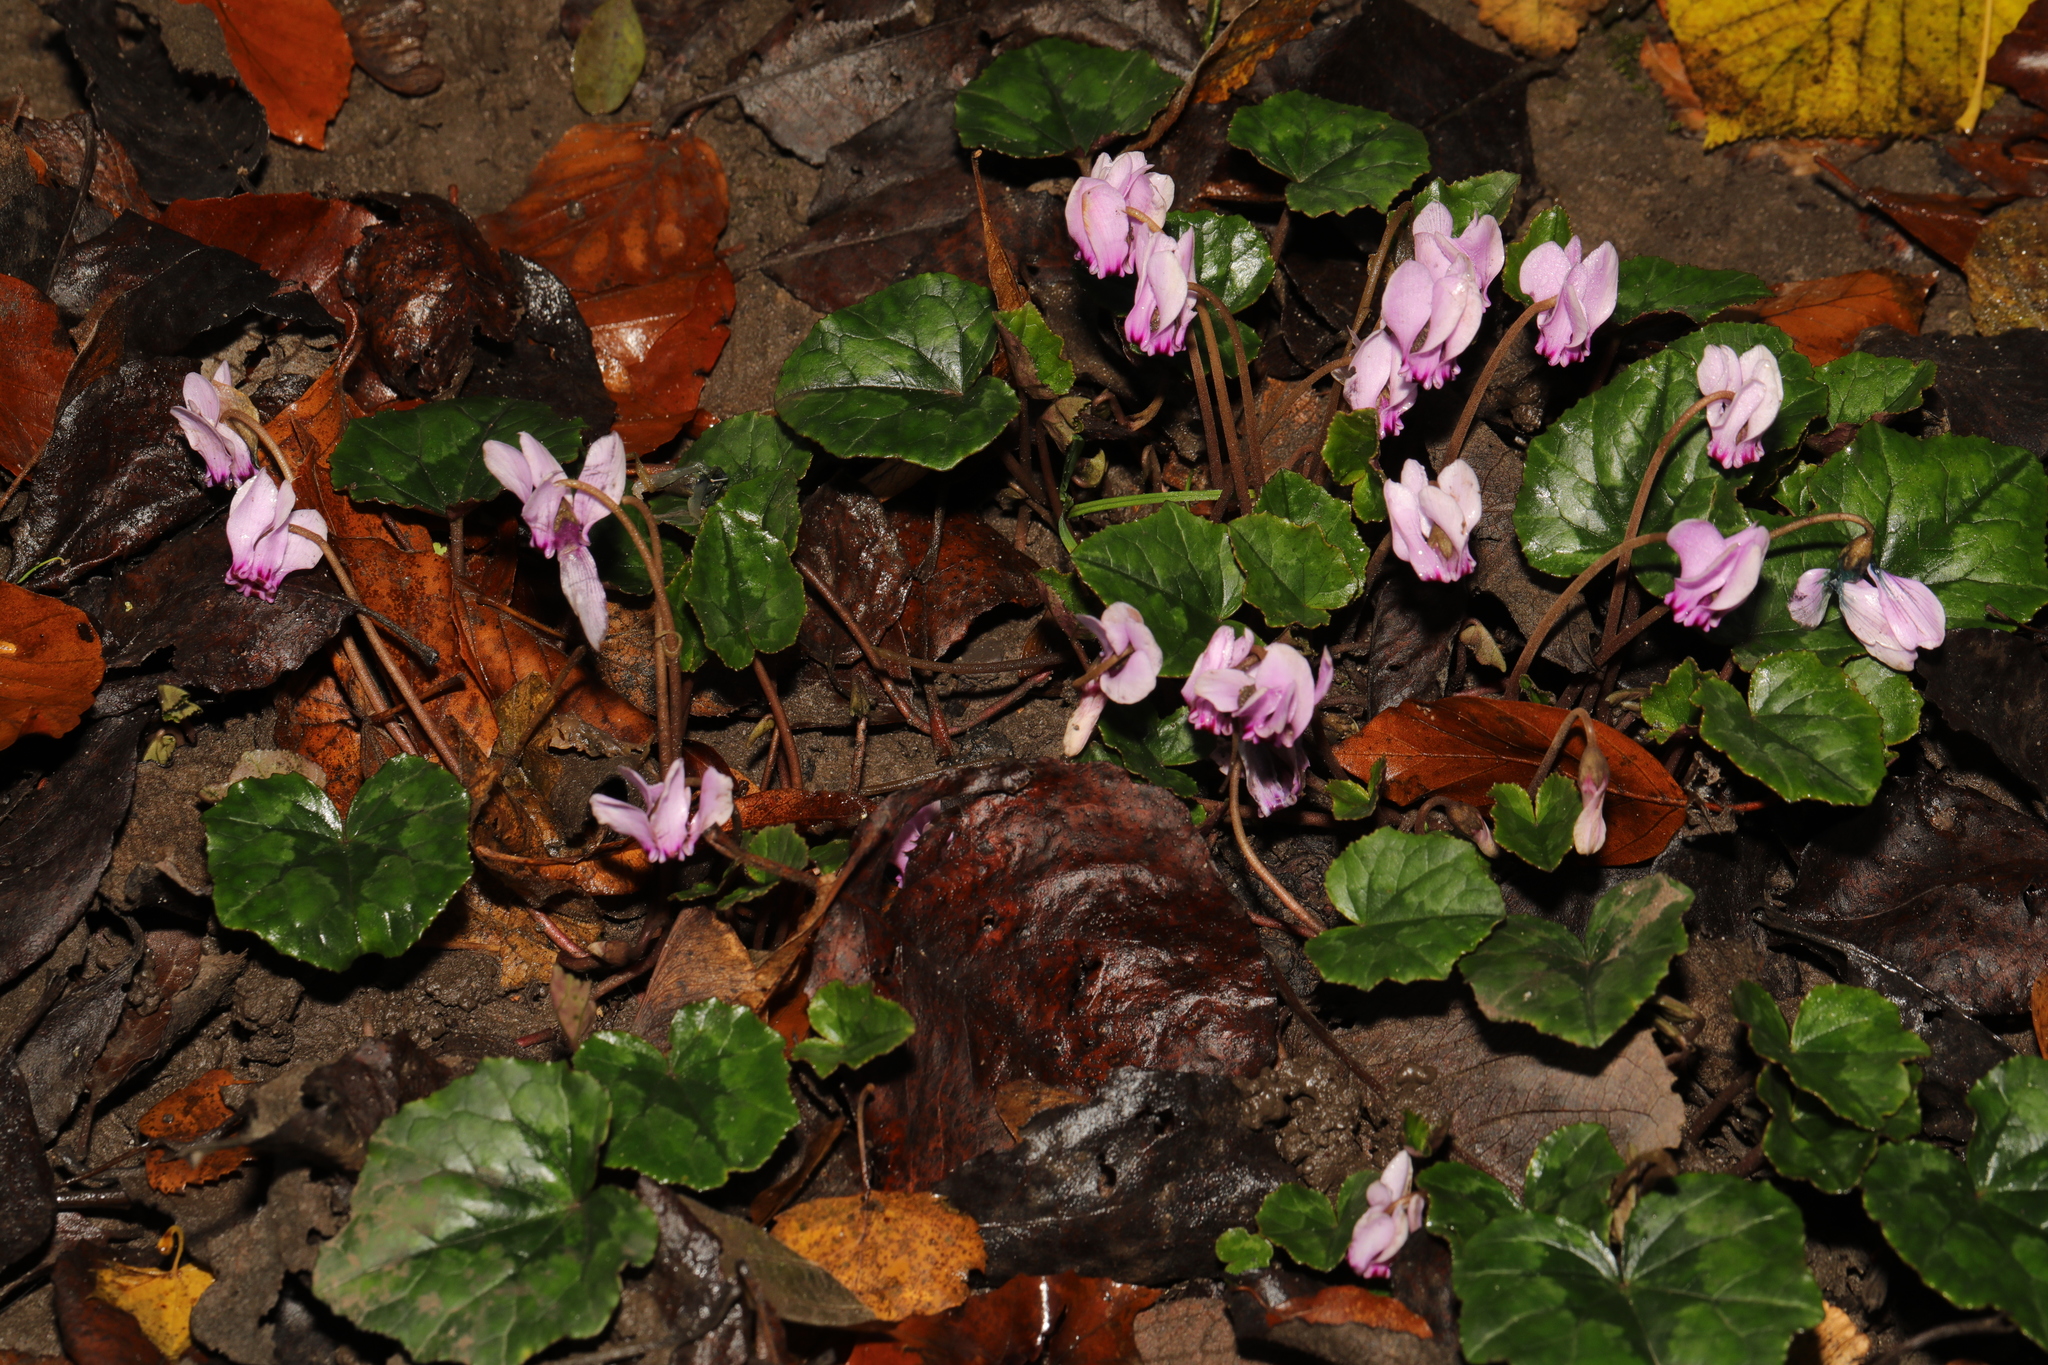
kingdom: Plantae
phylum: Tracheophyta
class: Magnoliopsida
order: Ericales
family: Primulaceae
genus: Cyclamen
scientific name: Cyclamen hederifolium
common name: Sowbread
